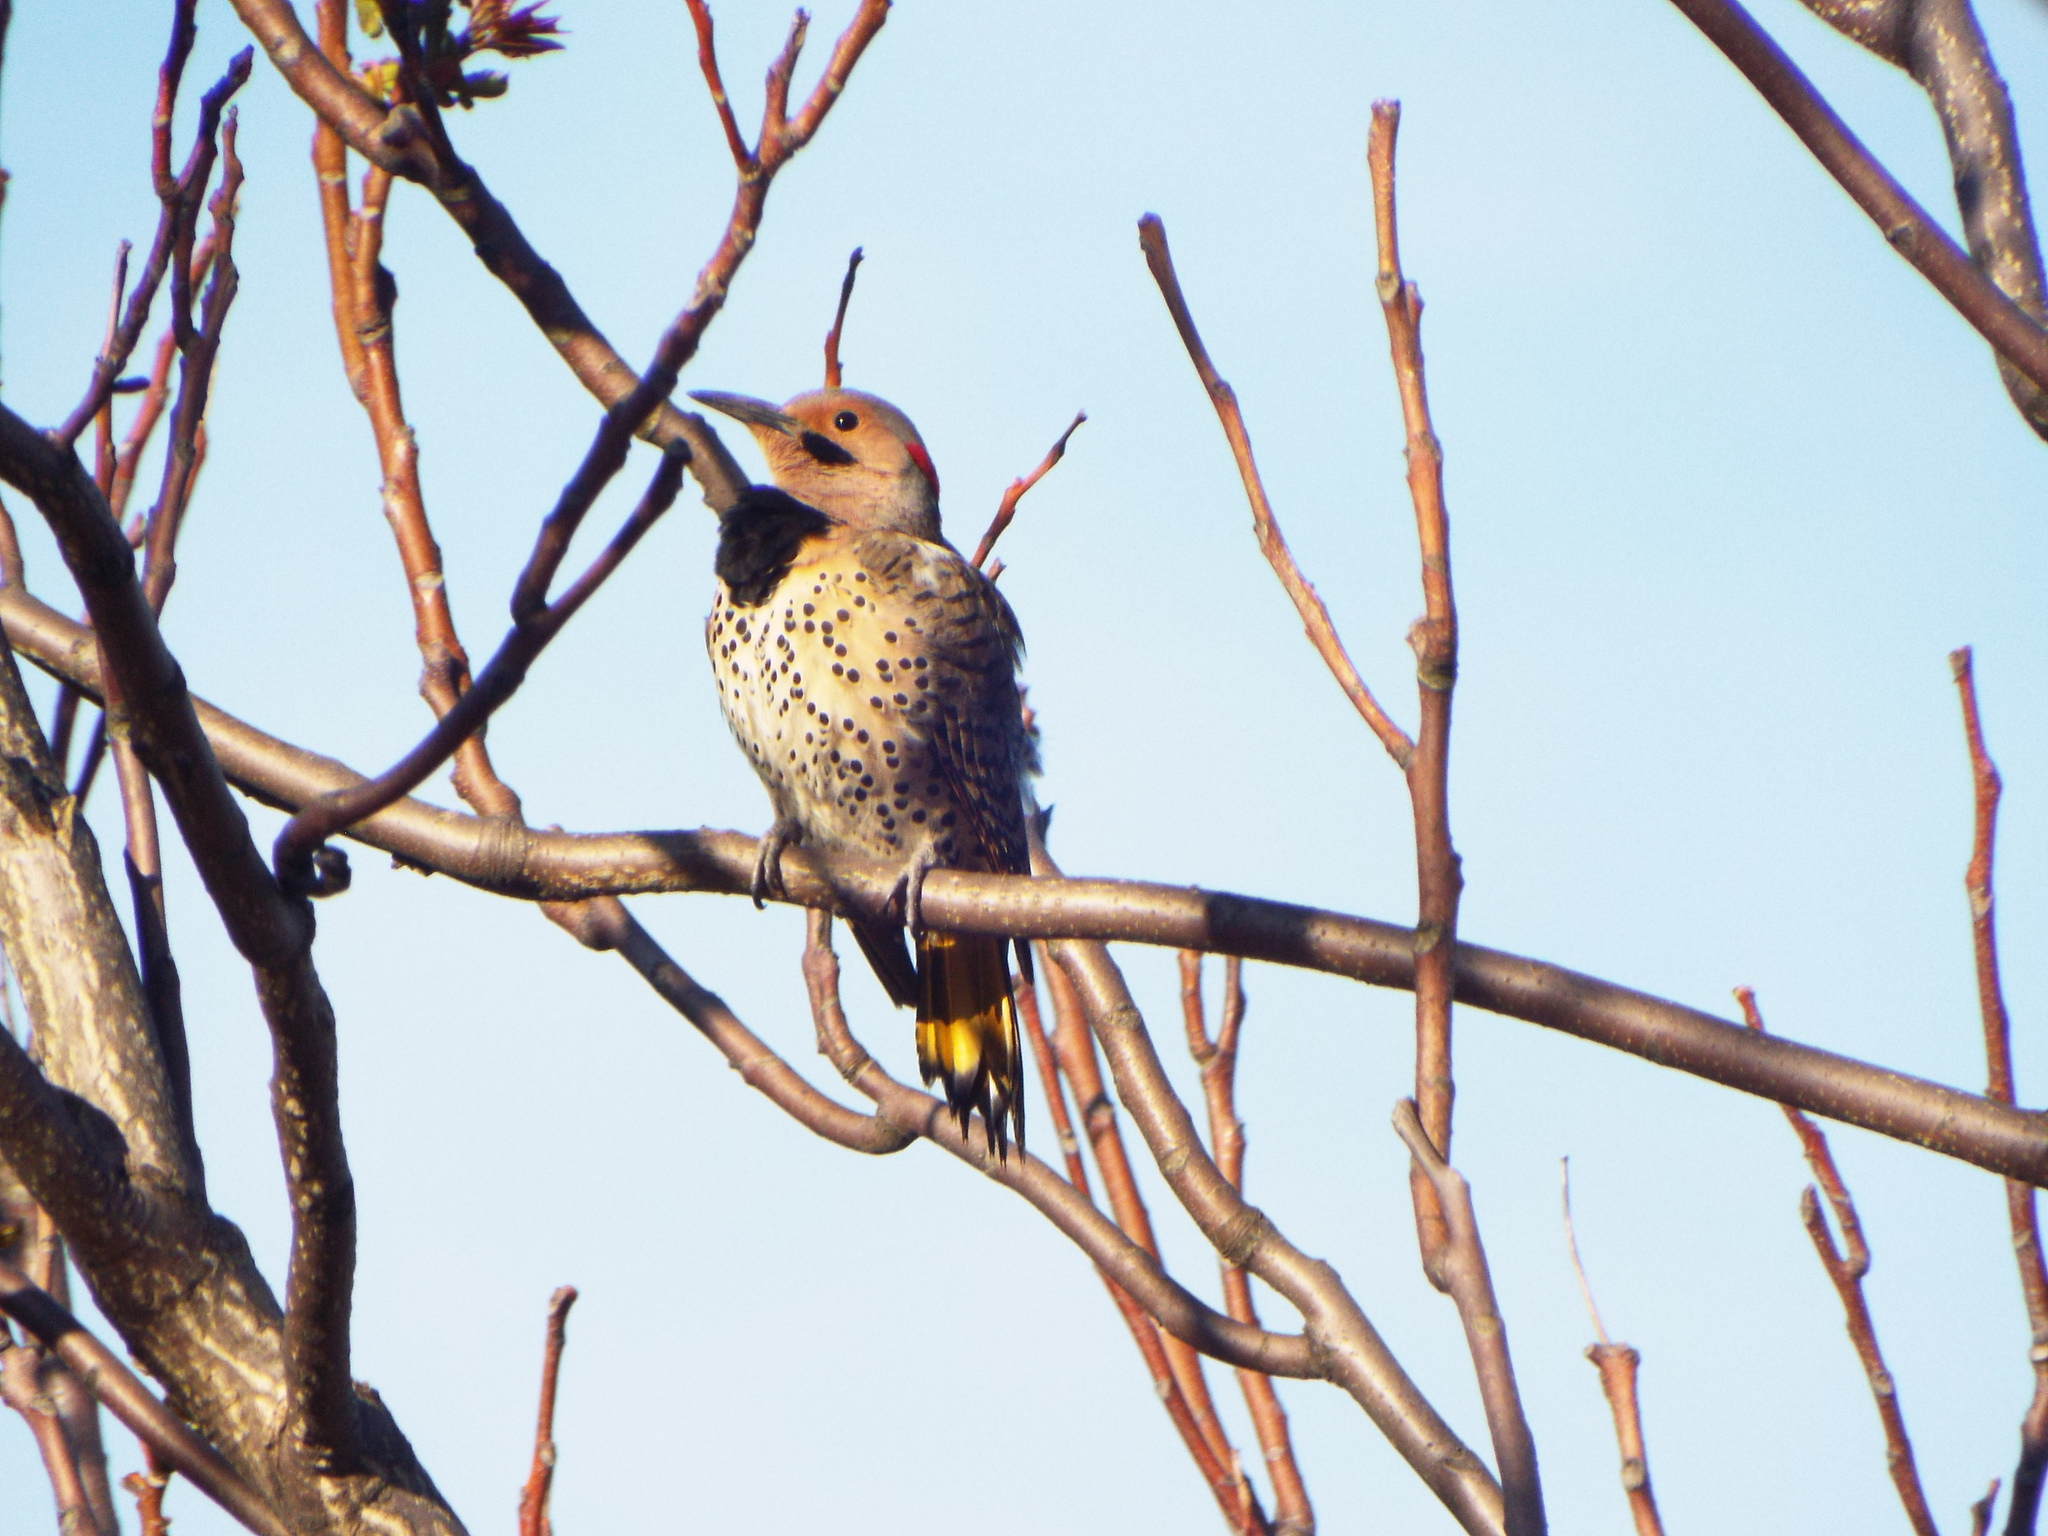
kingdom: Animalia
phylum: Chordata
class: Aves
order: Piciformes
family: Picidae
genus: Colaptes
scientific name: Colaptes auratus
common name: Northern flicker
